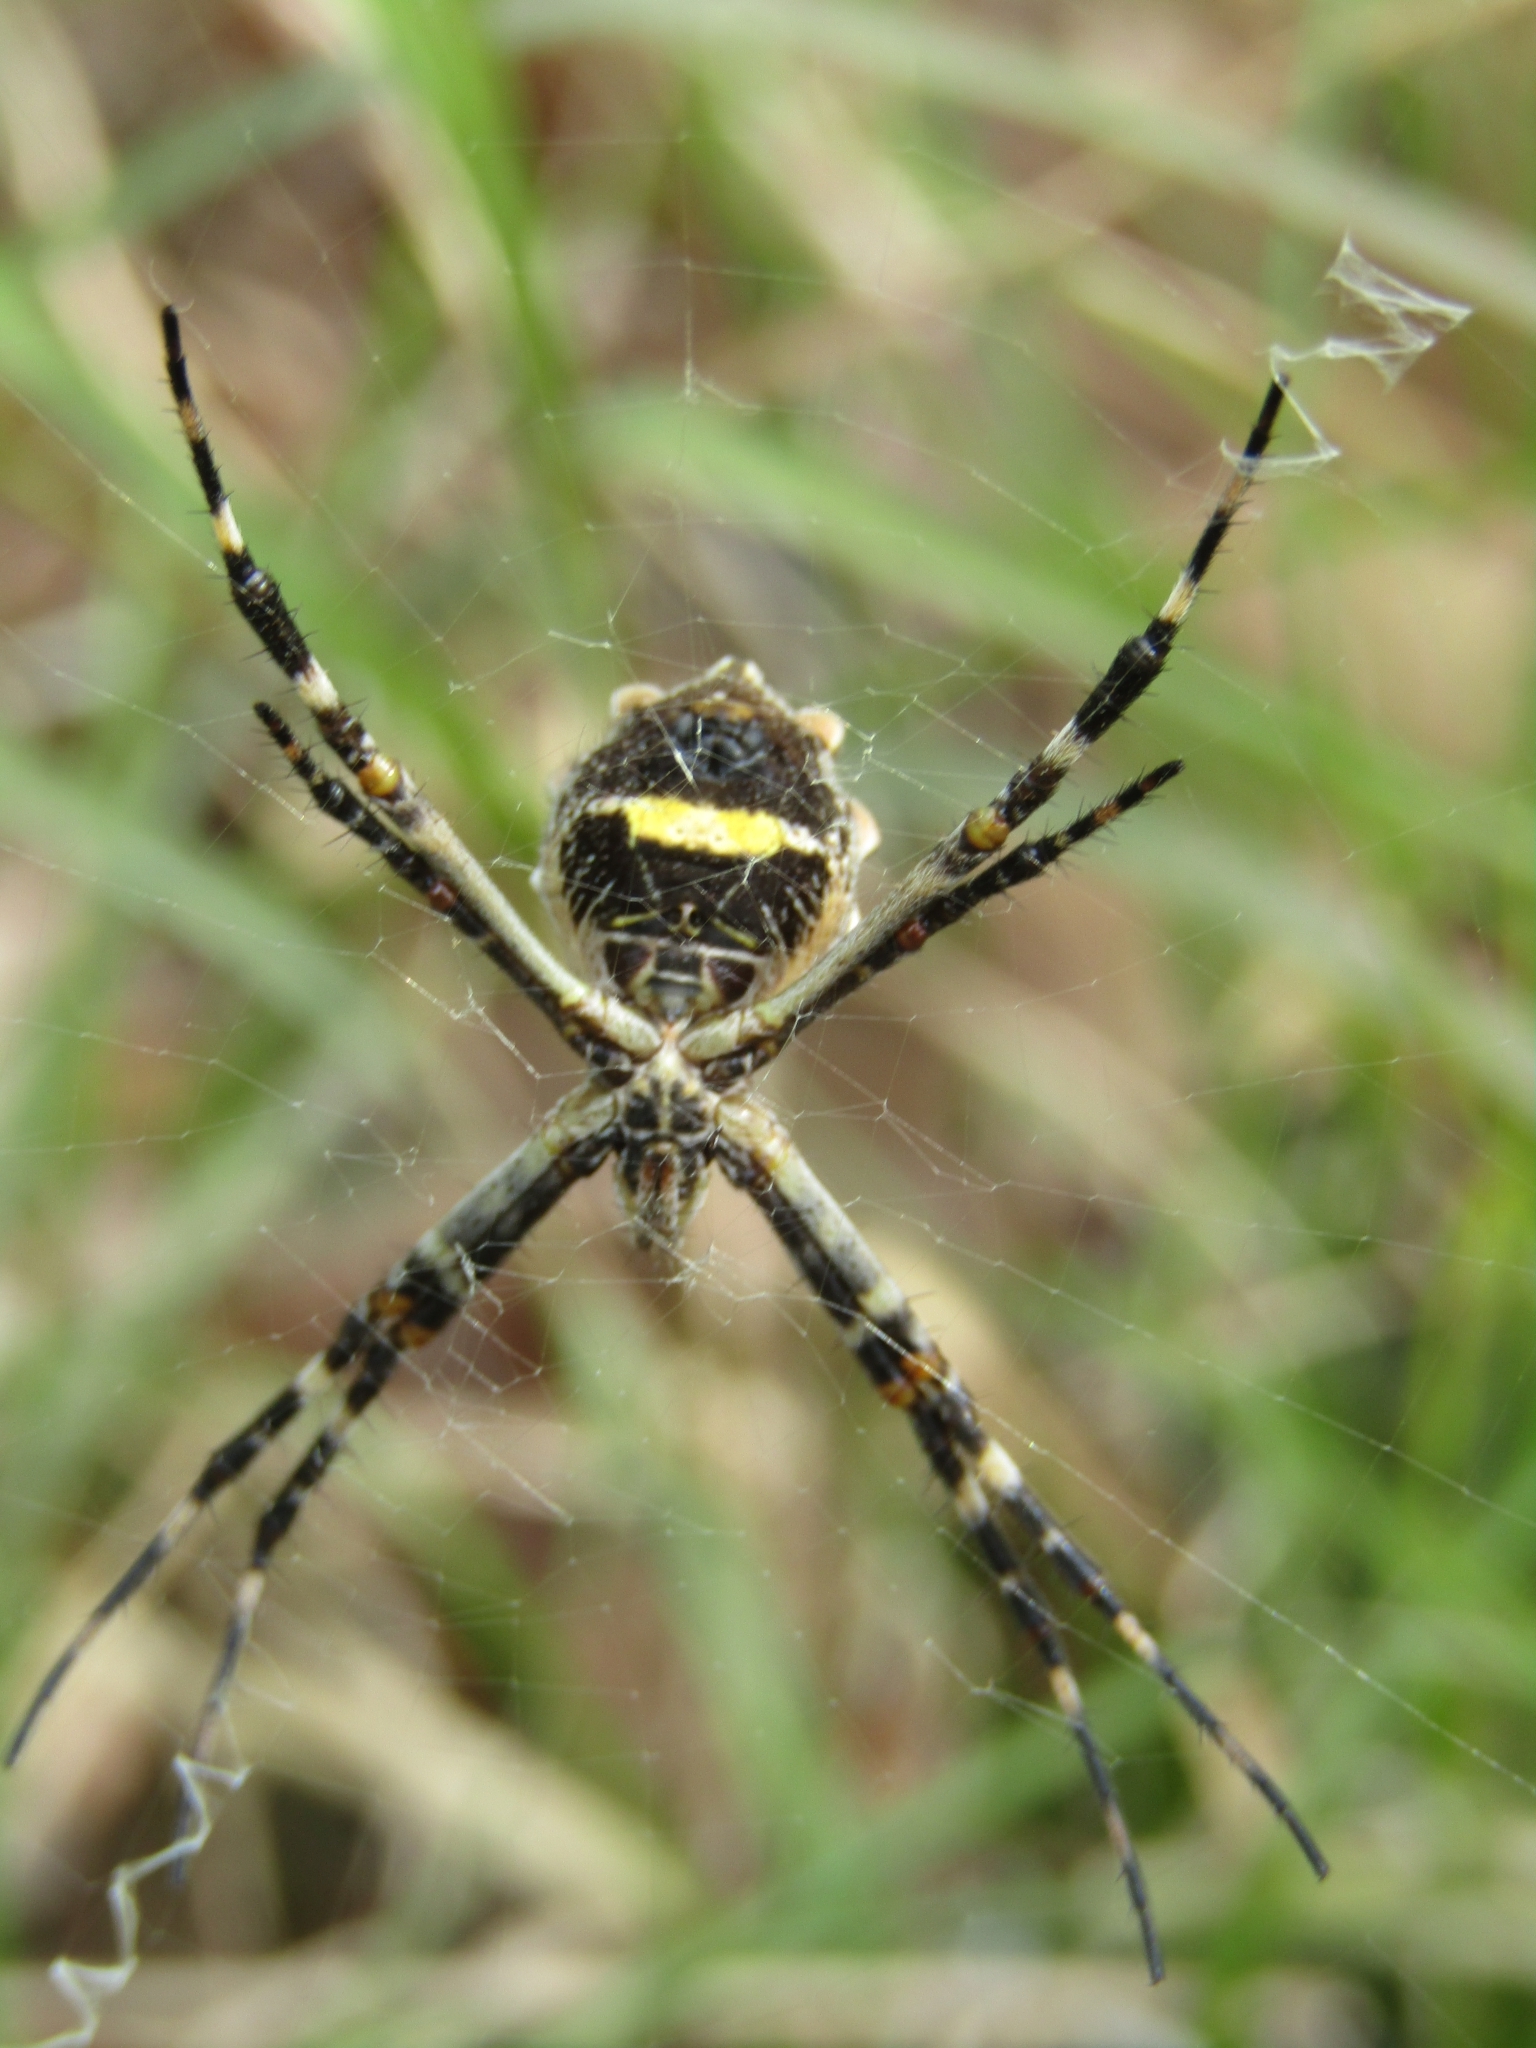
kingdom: Animalia
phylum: Arthropoda
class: Arachnida
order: Araneae
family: Araneidae
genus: Argiope
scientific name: Argiope argentata
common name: Orb weavers
